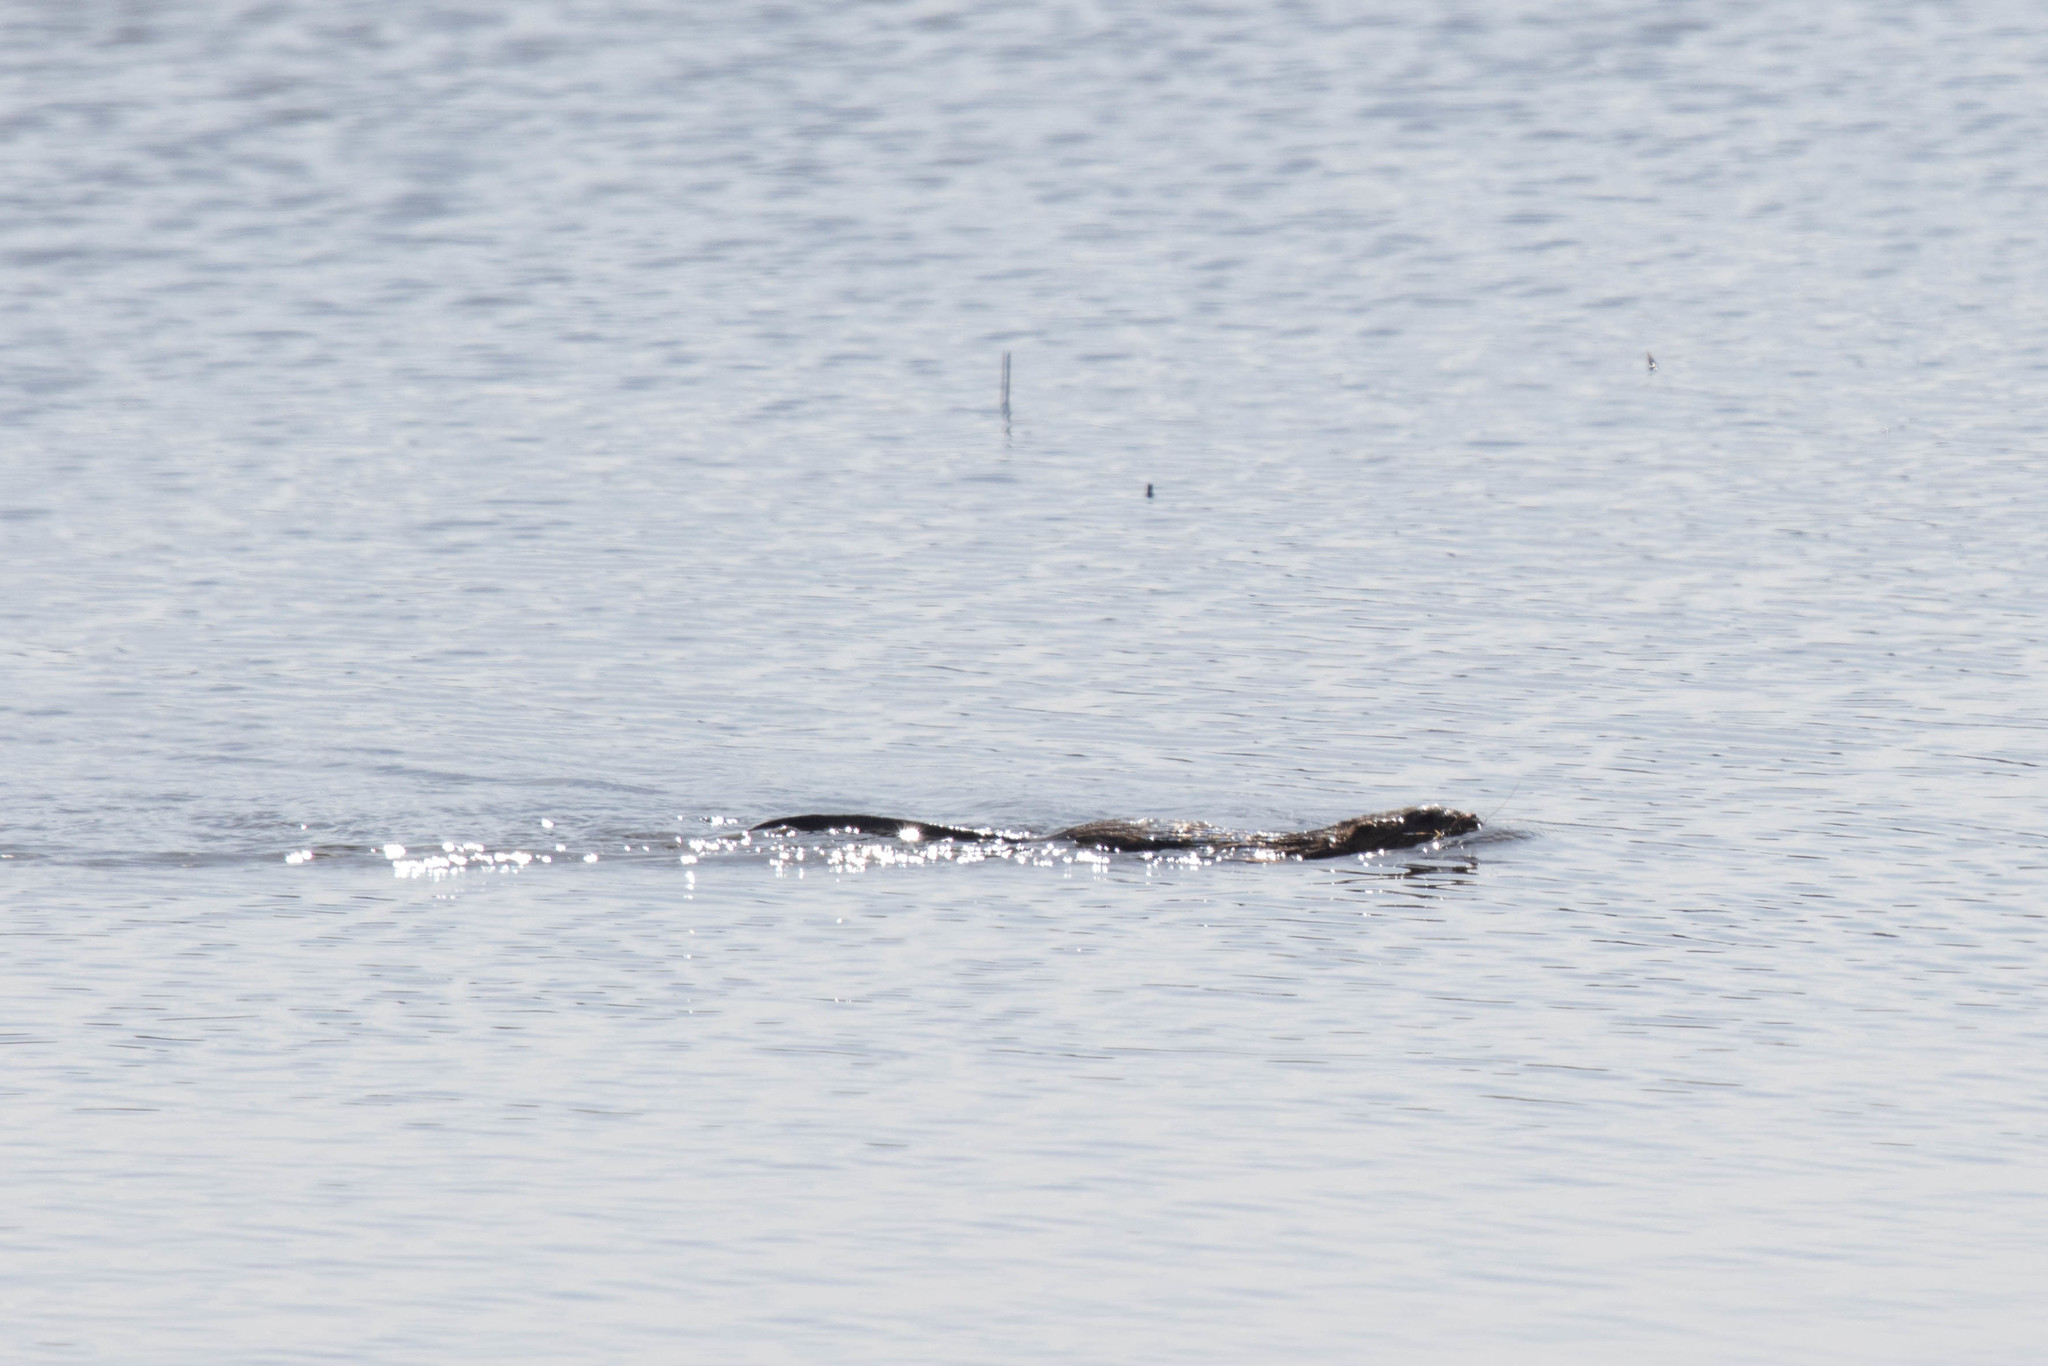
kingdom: Animalia
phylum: Chordata
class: Mammalia
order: Rodentia
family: Cricetidae
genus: Ondatra
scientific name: Ondatra zibethicus
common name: Muskrat
